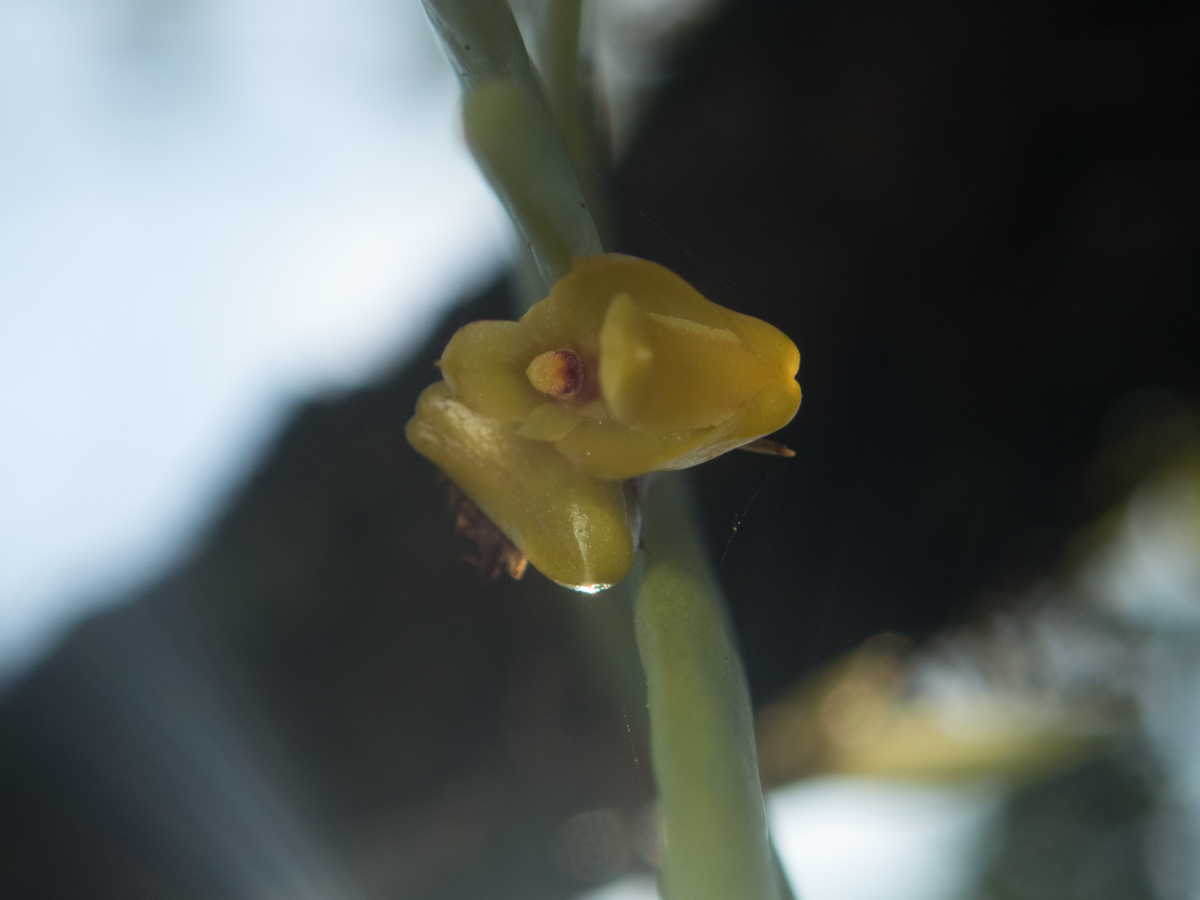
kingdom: Plantae
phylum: Tracheophyta
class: Liliopsida
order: Asparagales
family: Orchidaceae
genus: Oxystophyllum
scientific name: Oxystophyllum carnosum
